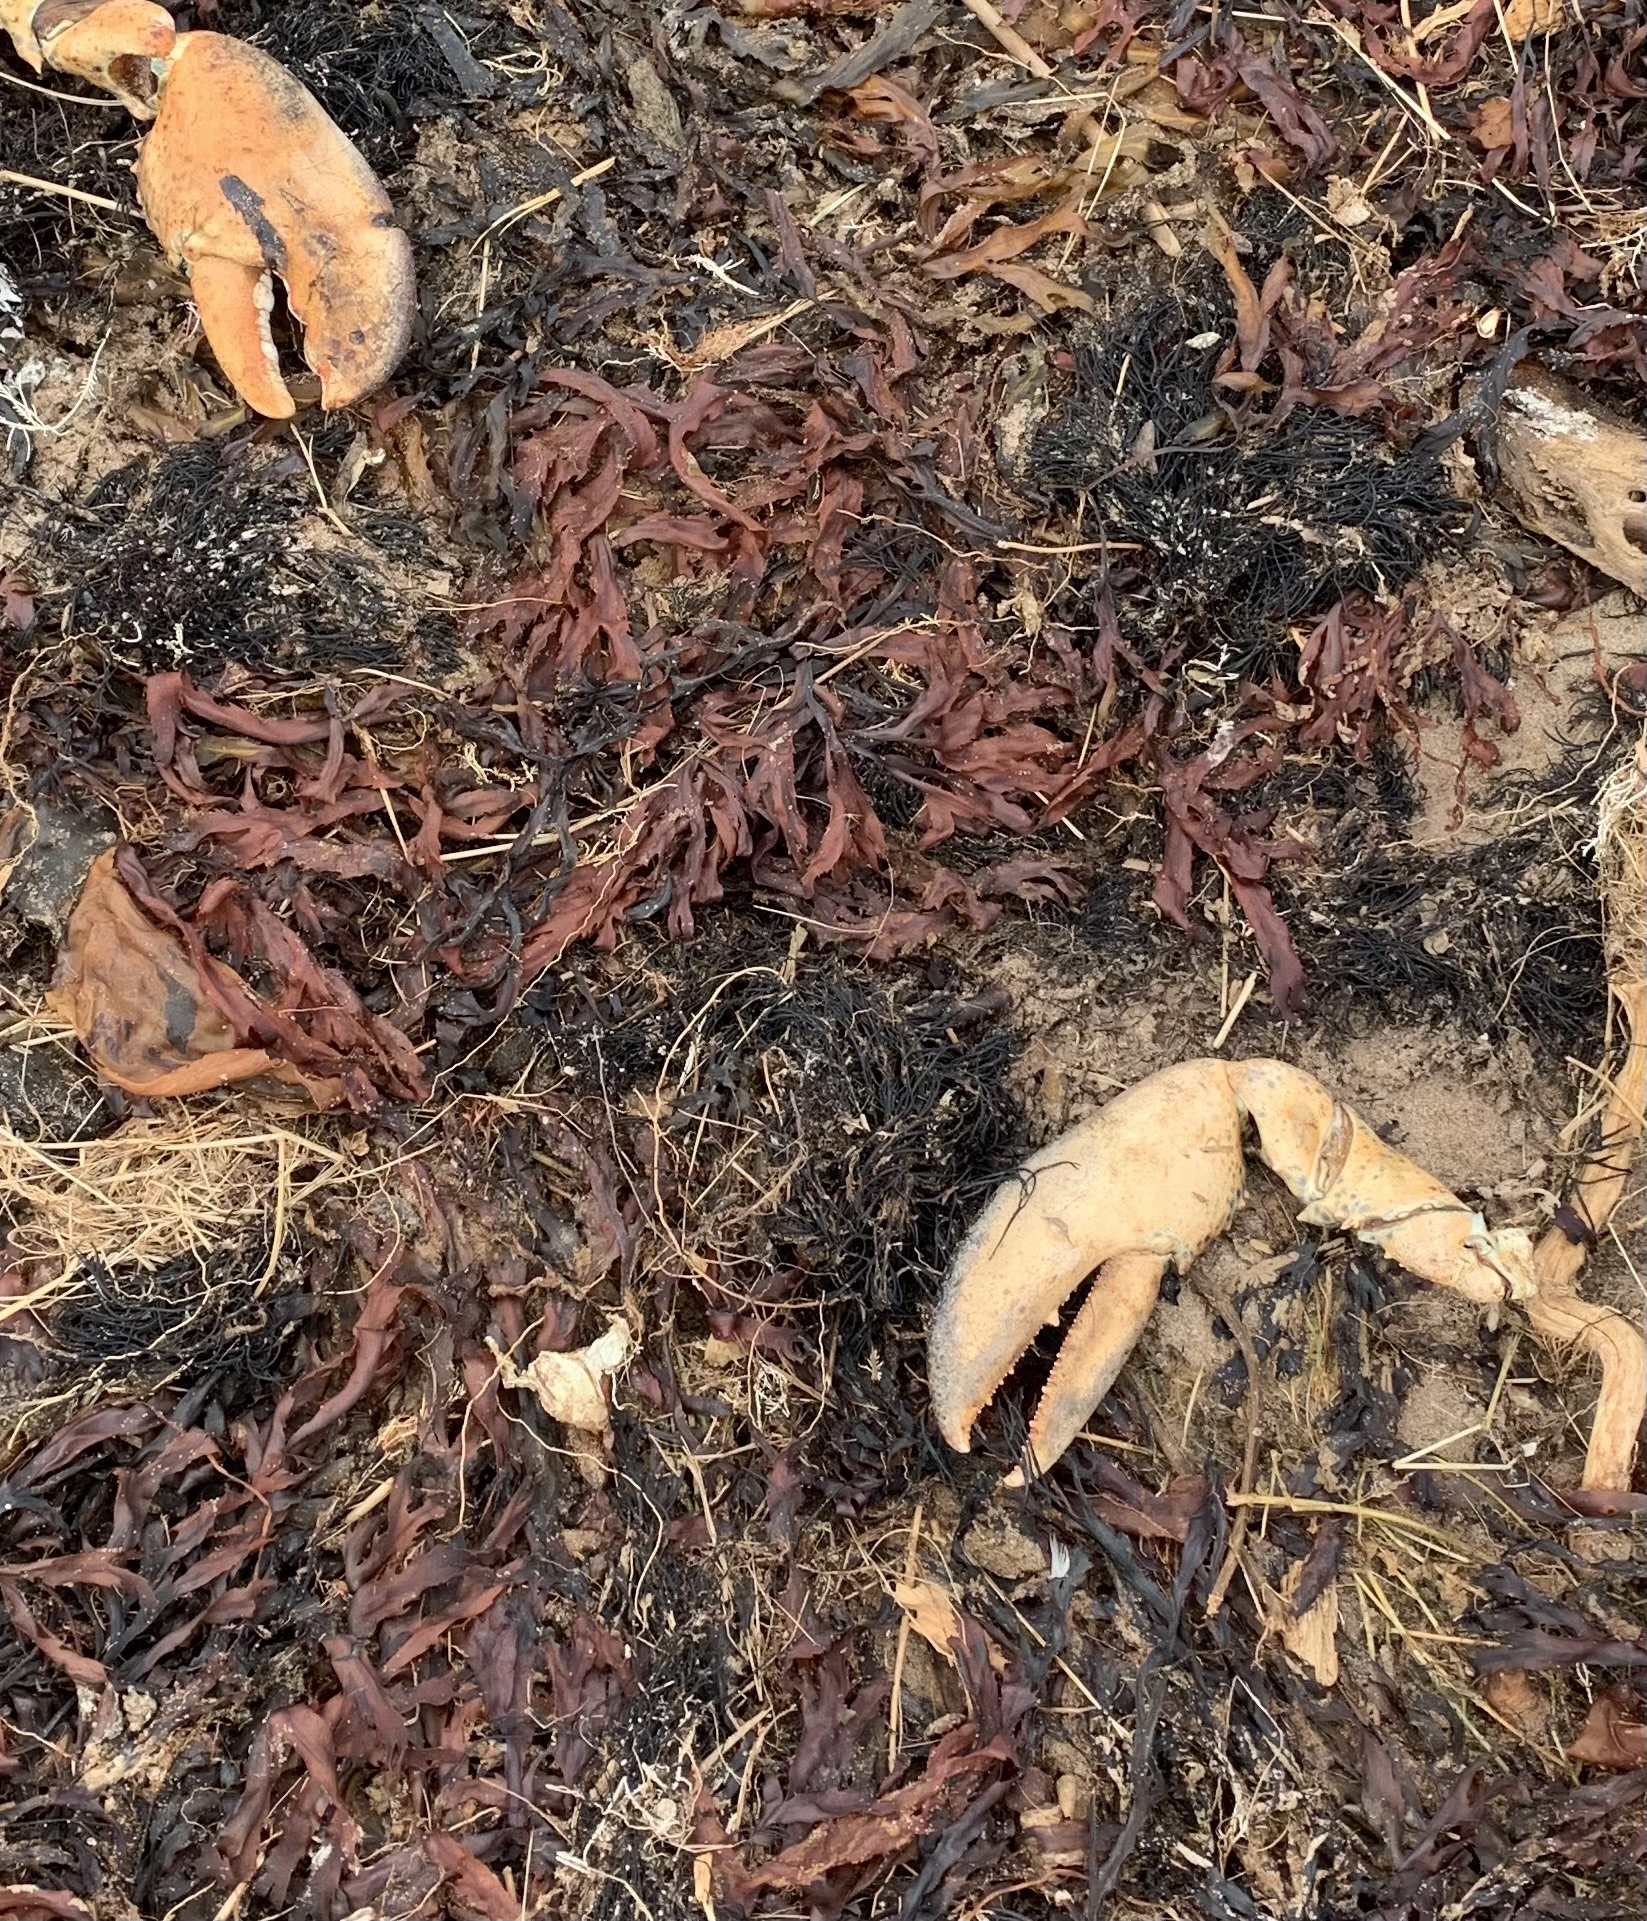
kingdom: Animalia
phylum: Arthropoda
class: Malacostraca
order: Decapoda
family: Nephropidae
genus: Homarus
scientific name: Homarus americanus
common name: American lobster
